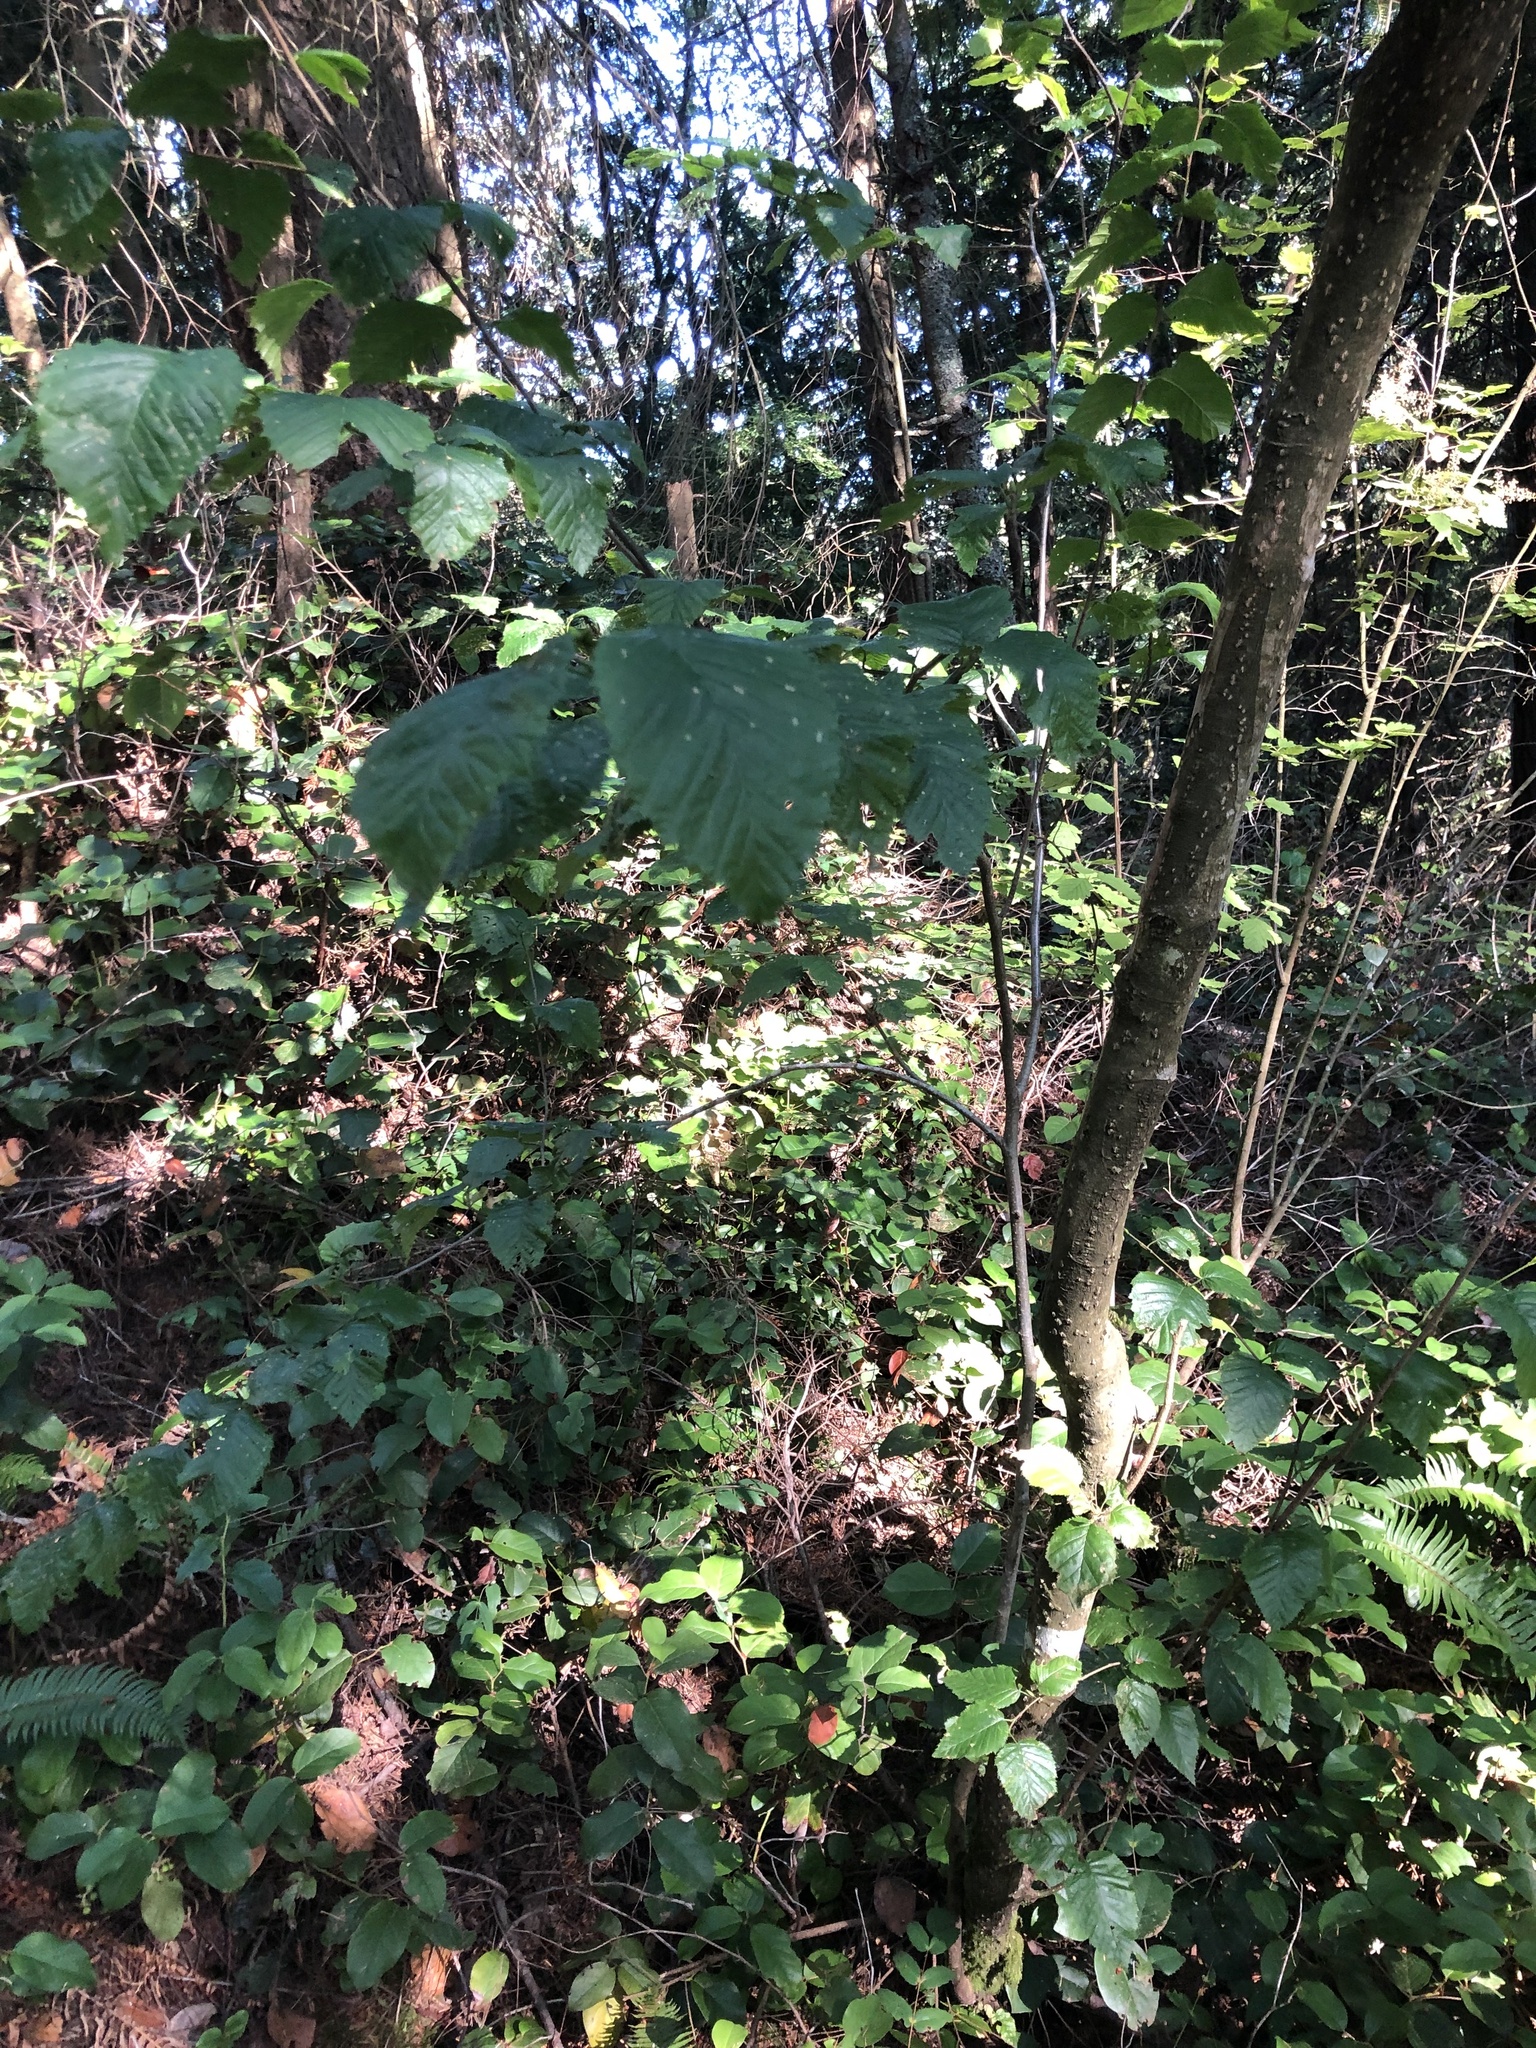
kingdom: Plantae
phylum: Tracheophyta
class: Magnoliopsida
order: Fagales
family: Betulaceae
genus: Alnus
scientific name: Alnus alnobetula
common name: Green alder
